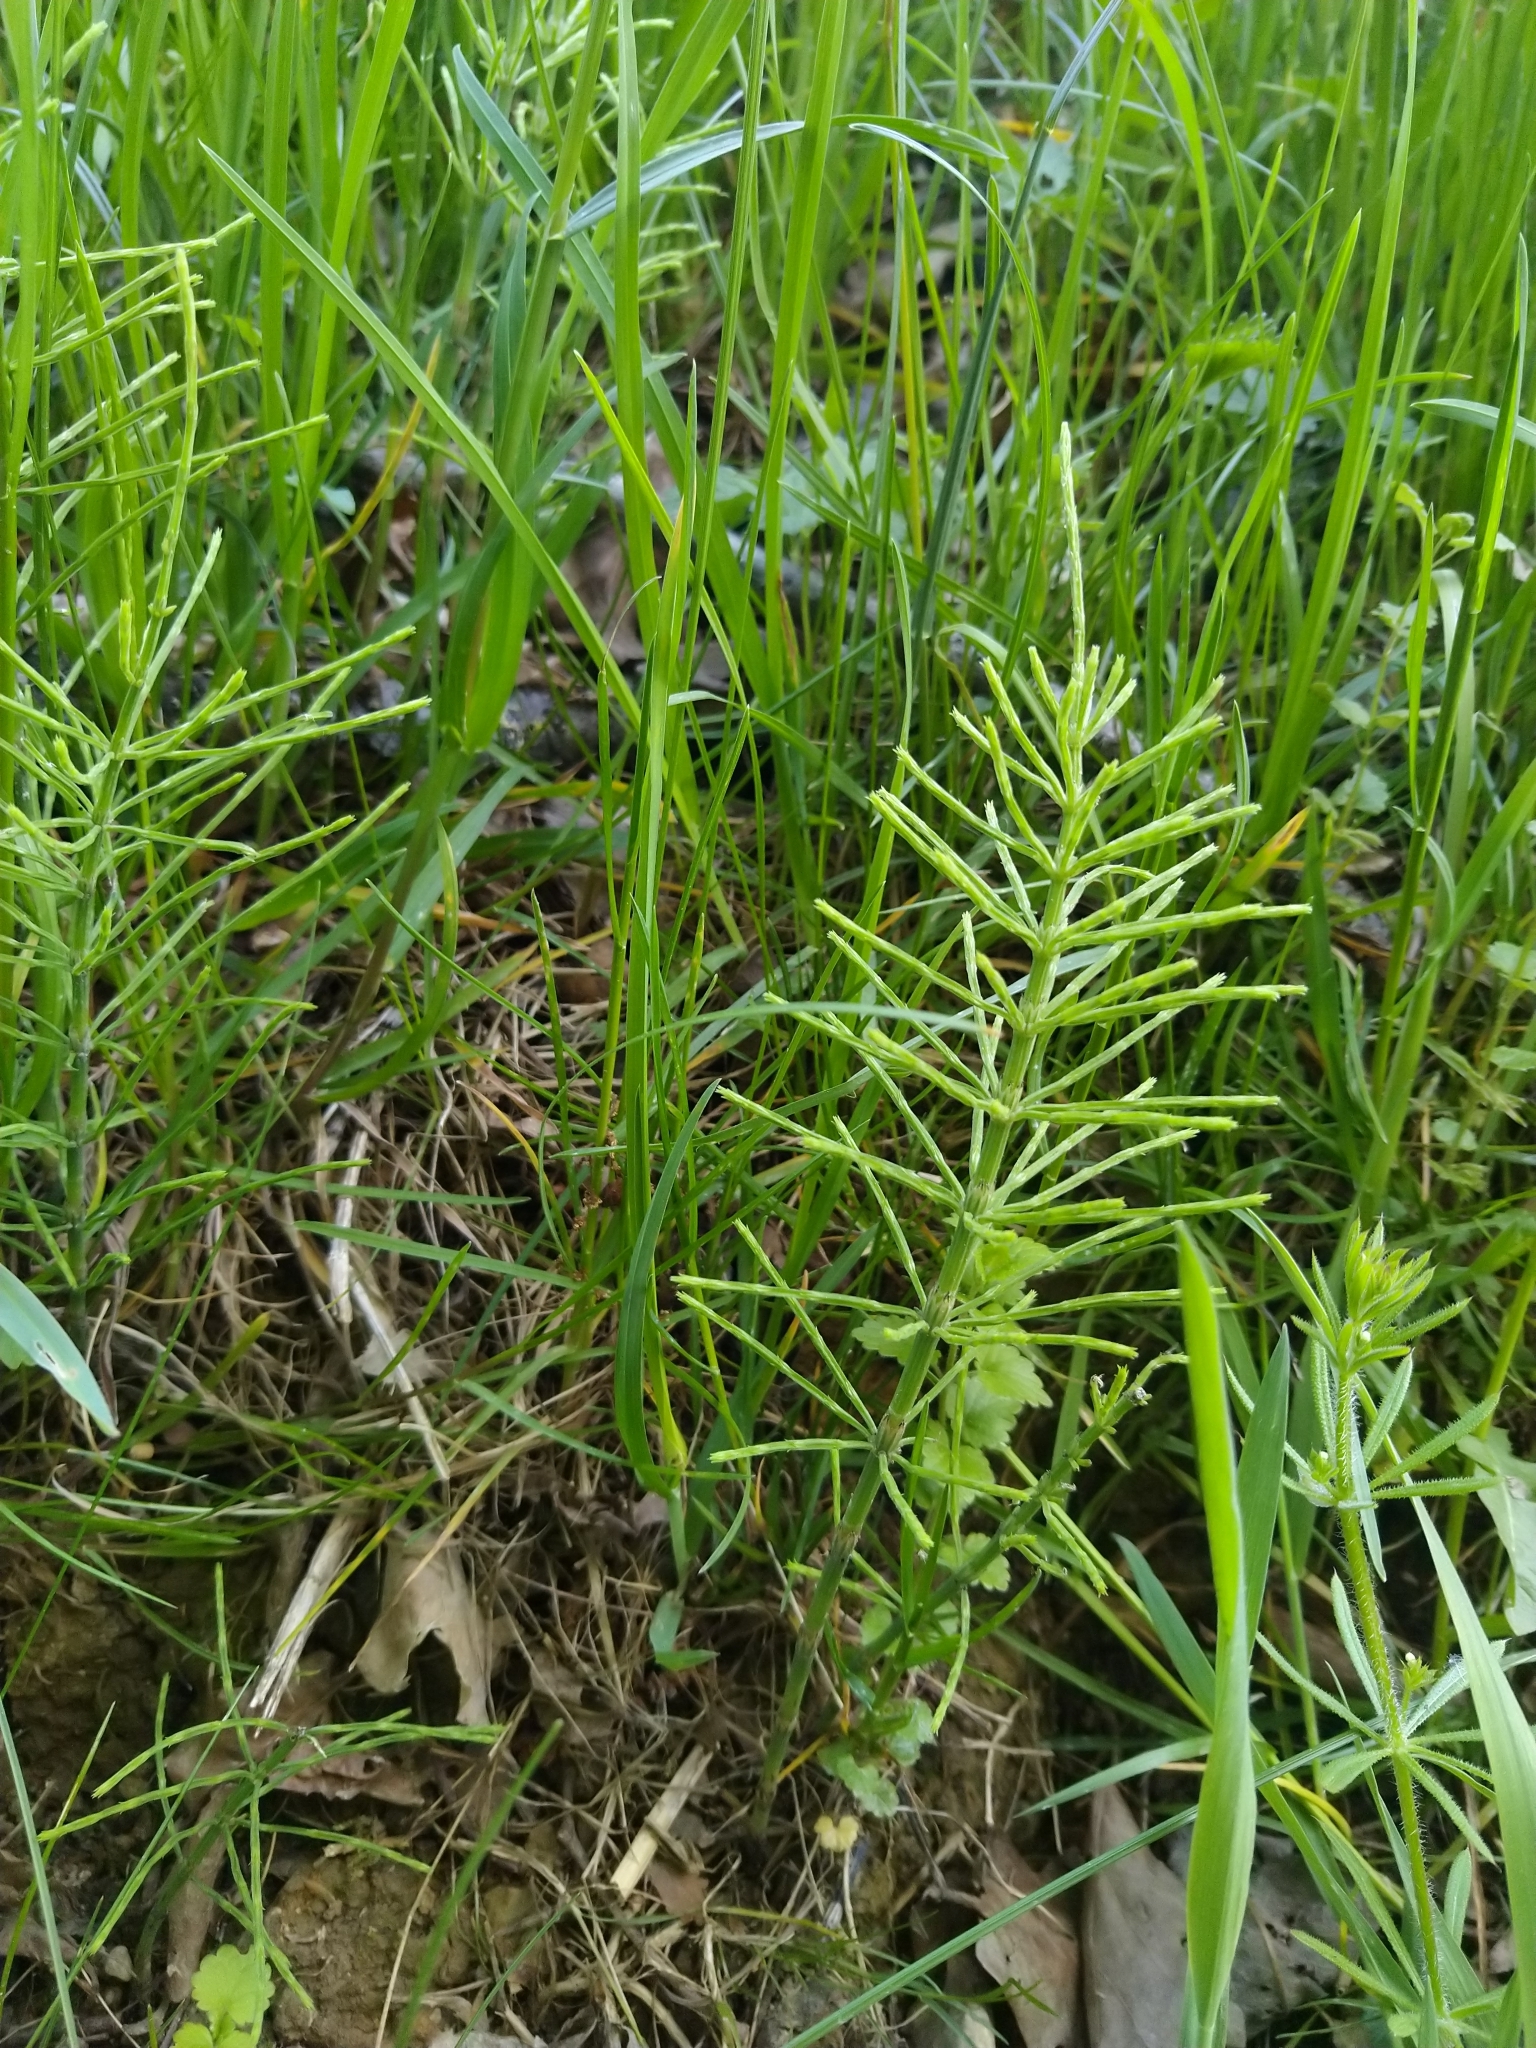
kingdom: Plantae
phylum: Tracheophyta
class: Polypodiopsida
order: Equisetales
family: Equisetaceae
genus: Equisetum
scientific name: Equisetum arvense
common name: Field horsetail
